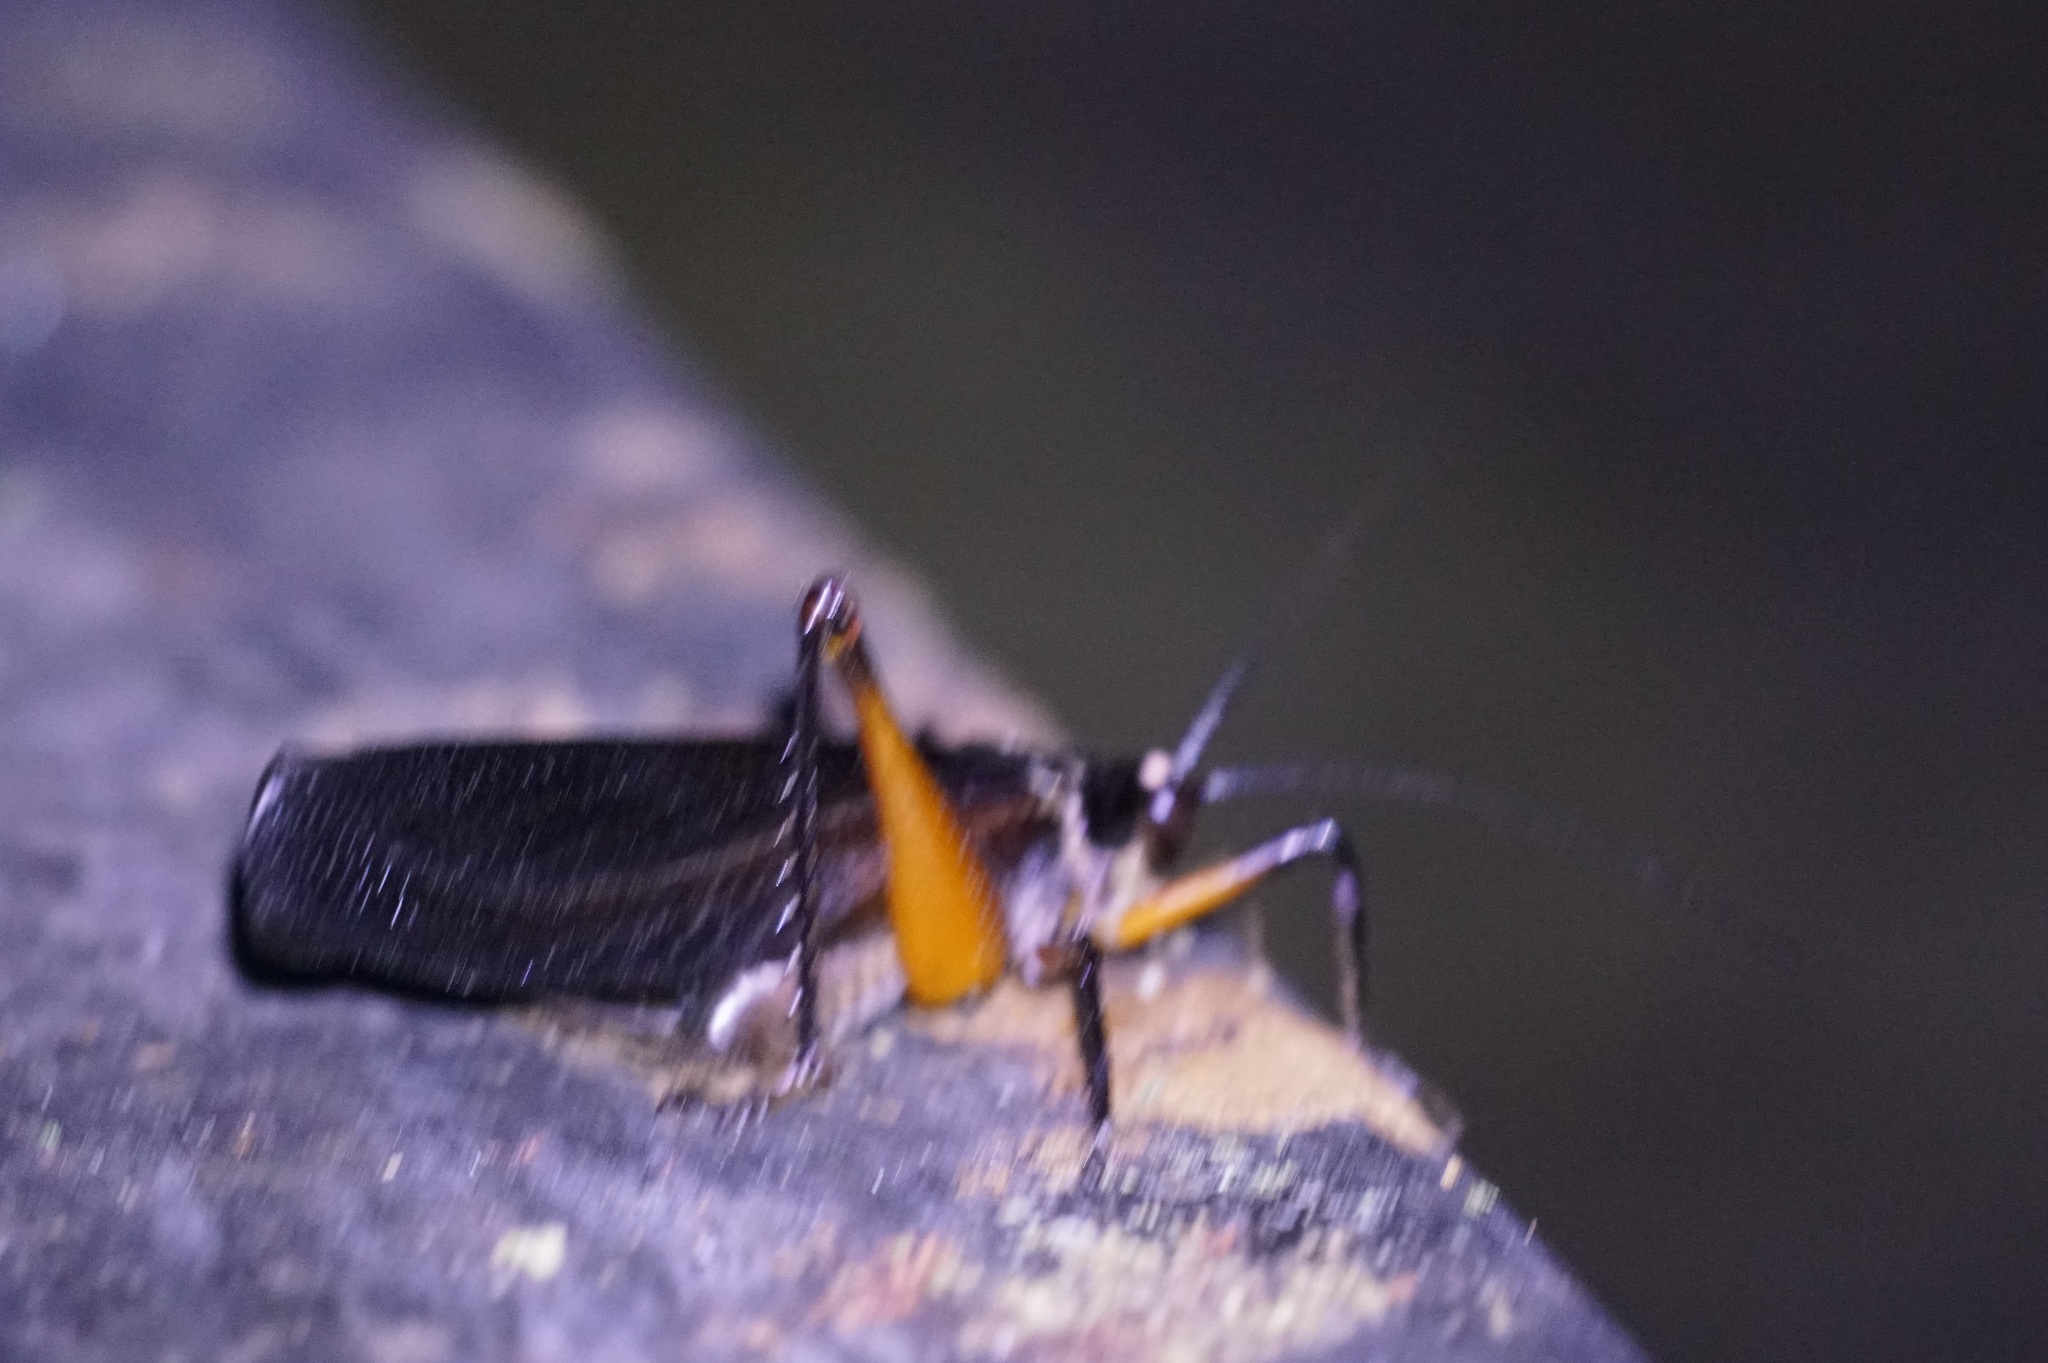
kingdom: Animalia
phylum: Arthropoda
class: Insecta
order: Orthoptera
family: Anostostomatidae
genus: Exogryllacris
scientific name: Exogryllacris ornata
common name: Broad-winged forest cricket
